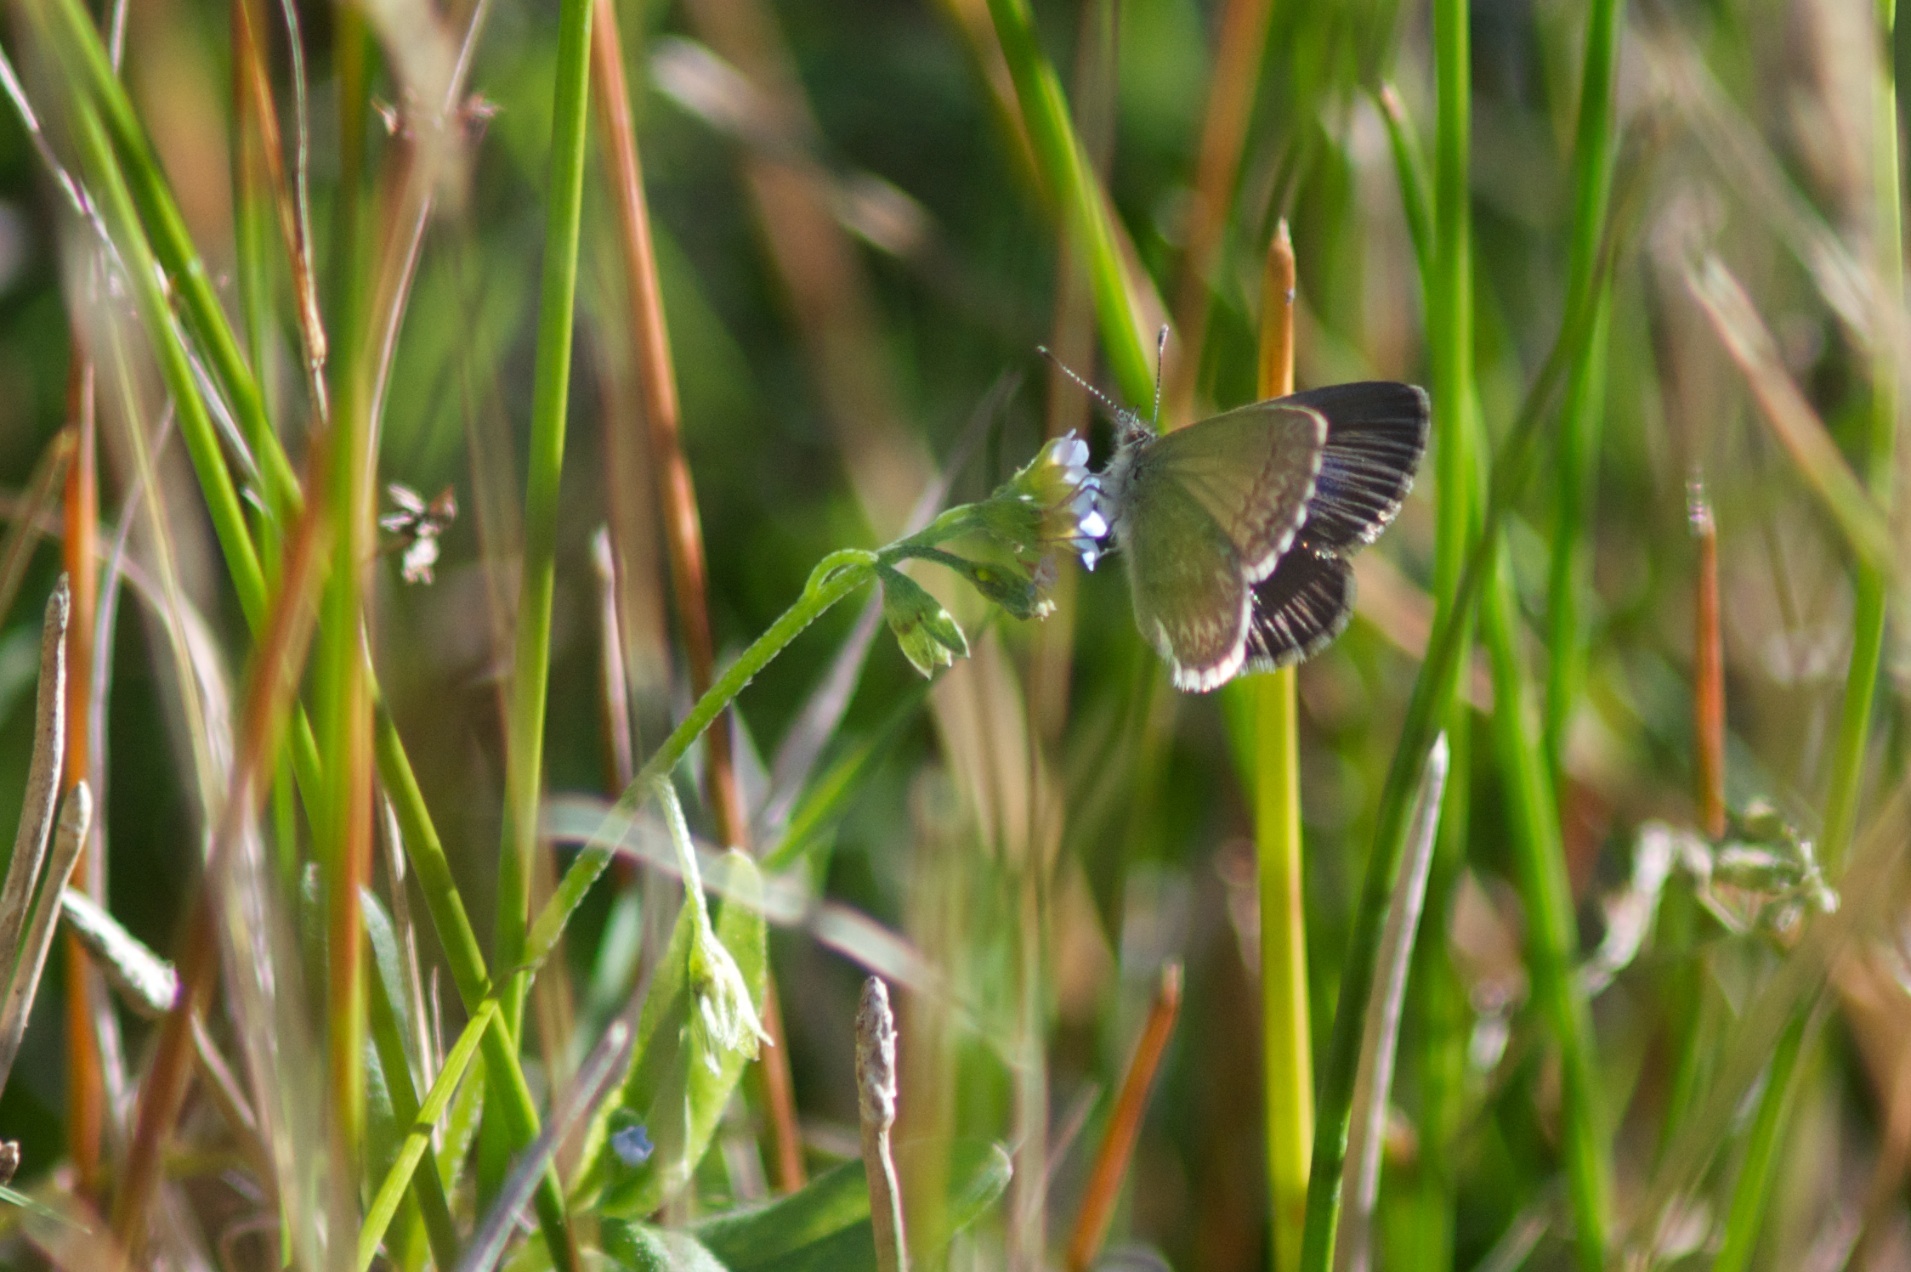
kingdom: Animalia
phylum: Arthropoda
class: Insecta
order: Lepidoptera
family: Lycaenidae
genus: Zizina
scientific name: Zizina labradus
